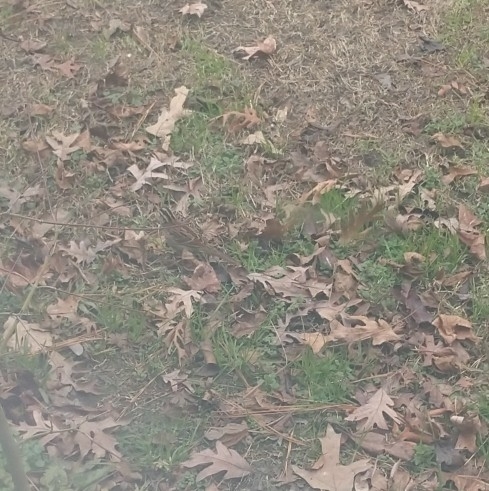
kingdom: Animalia
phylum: Chordata
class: Aves
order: Passeriformes
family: Passerellidae
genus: Zonotrichia
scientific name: Zonotrichia albicollis
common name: White-throated sparrow
